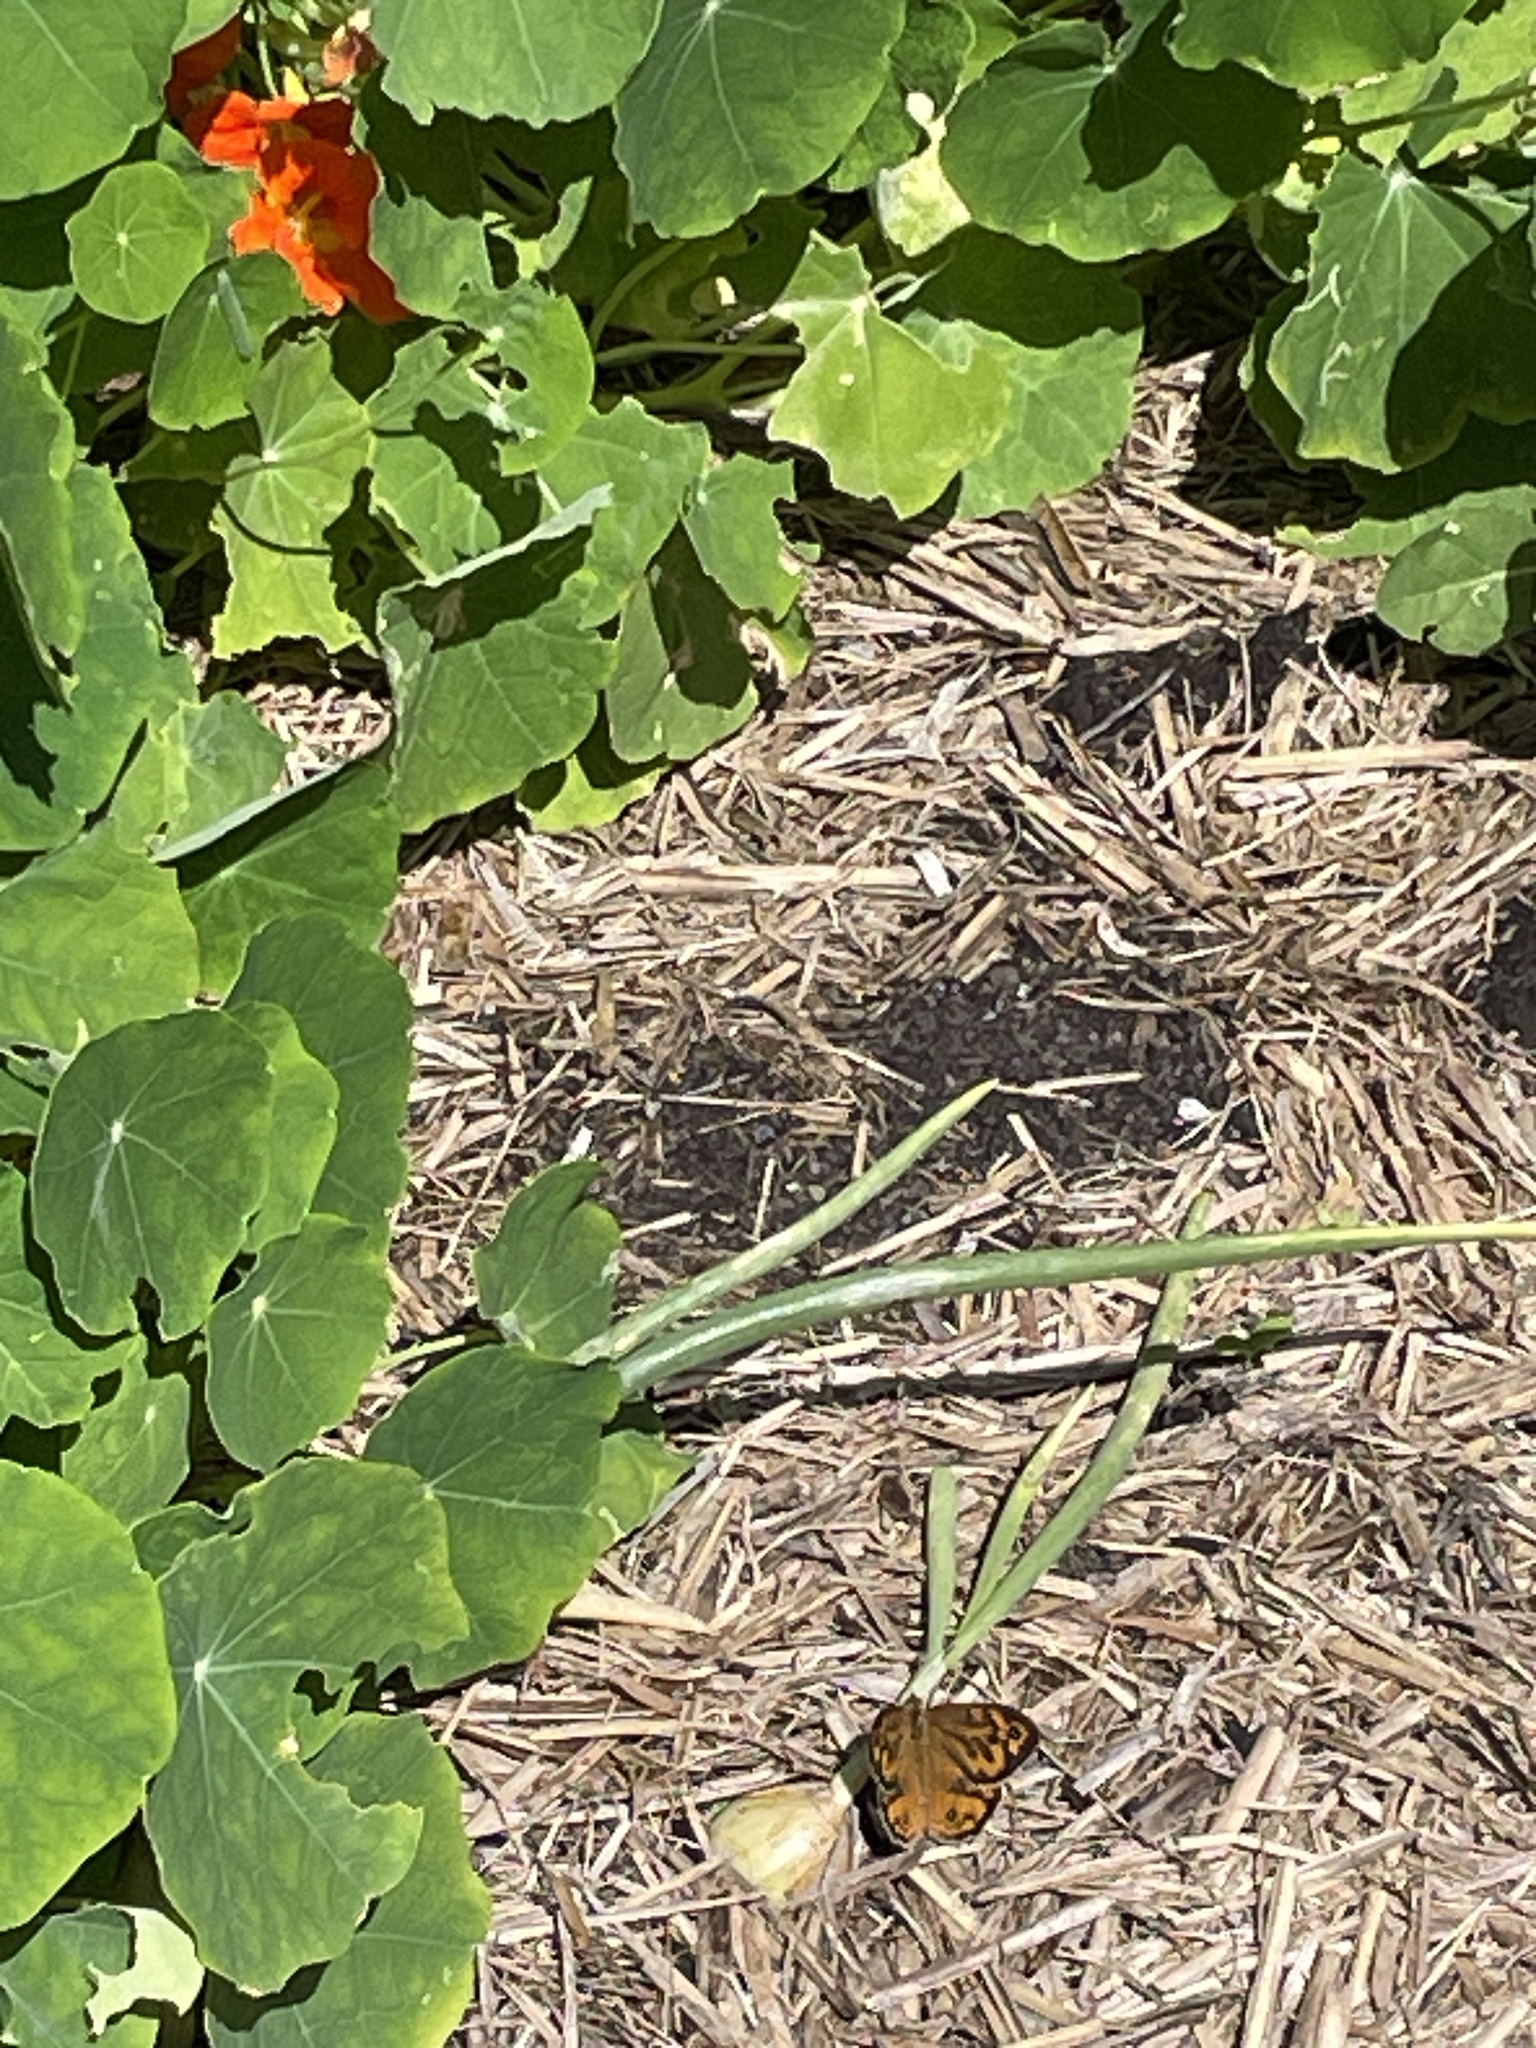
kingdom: Animalia
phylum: Arthropoda
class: Insecta
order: Lepidoptera
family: Nymphalidae
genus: Heteronympha
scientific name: Heteronympha merope
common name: Common brown
